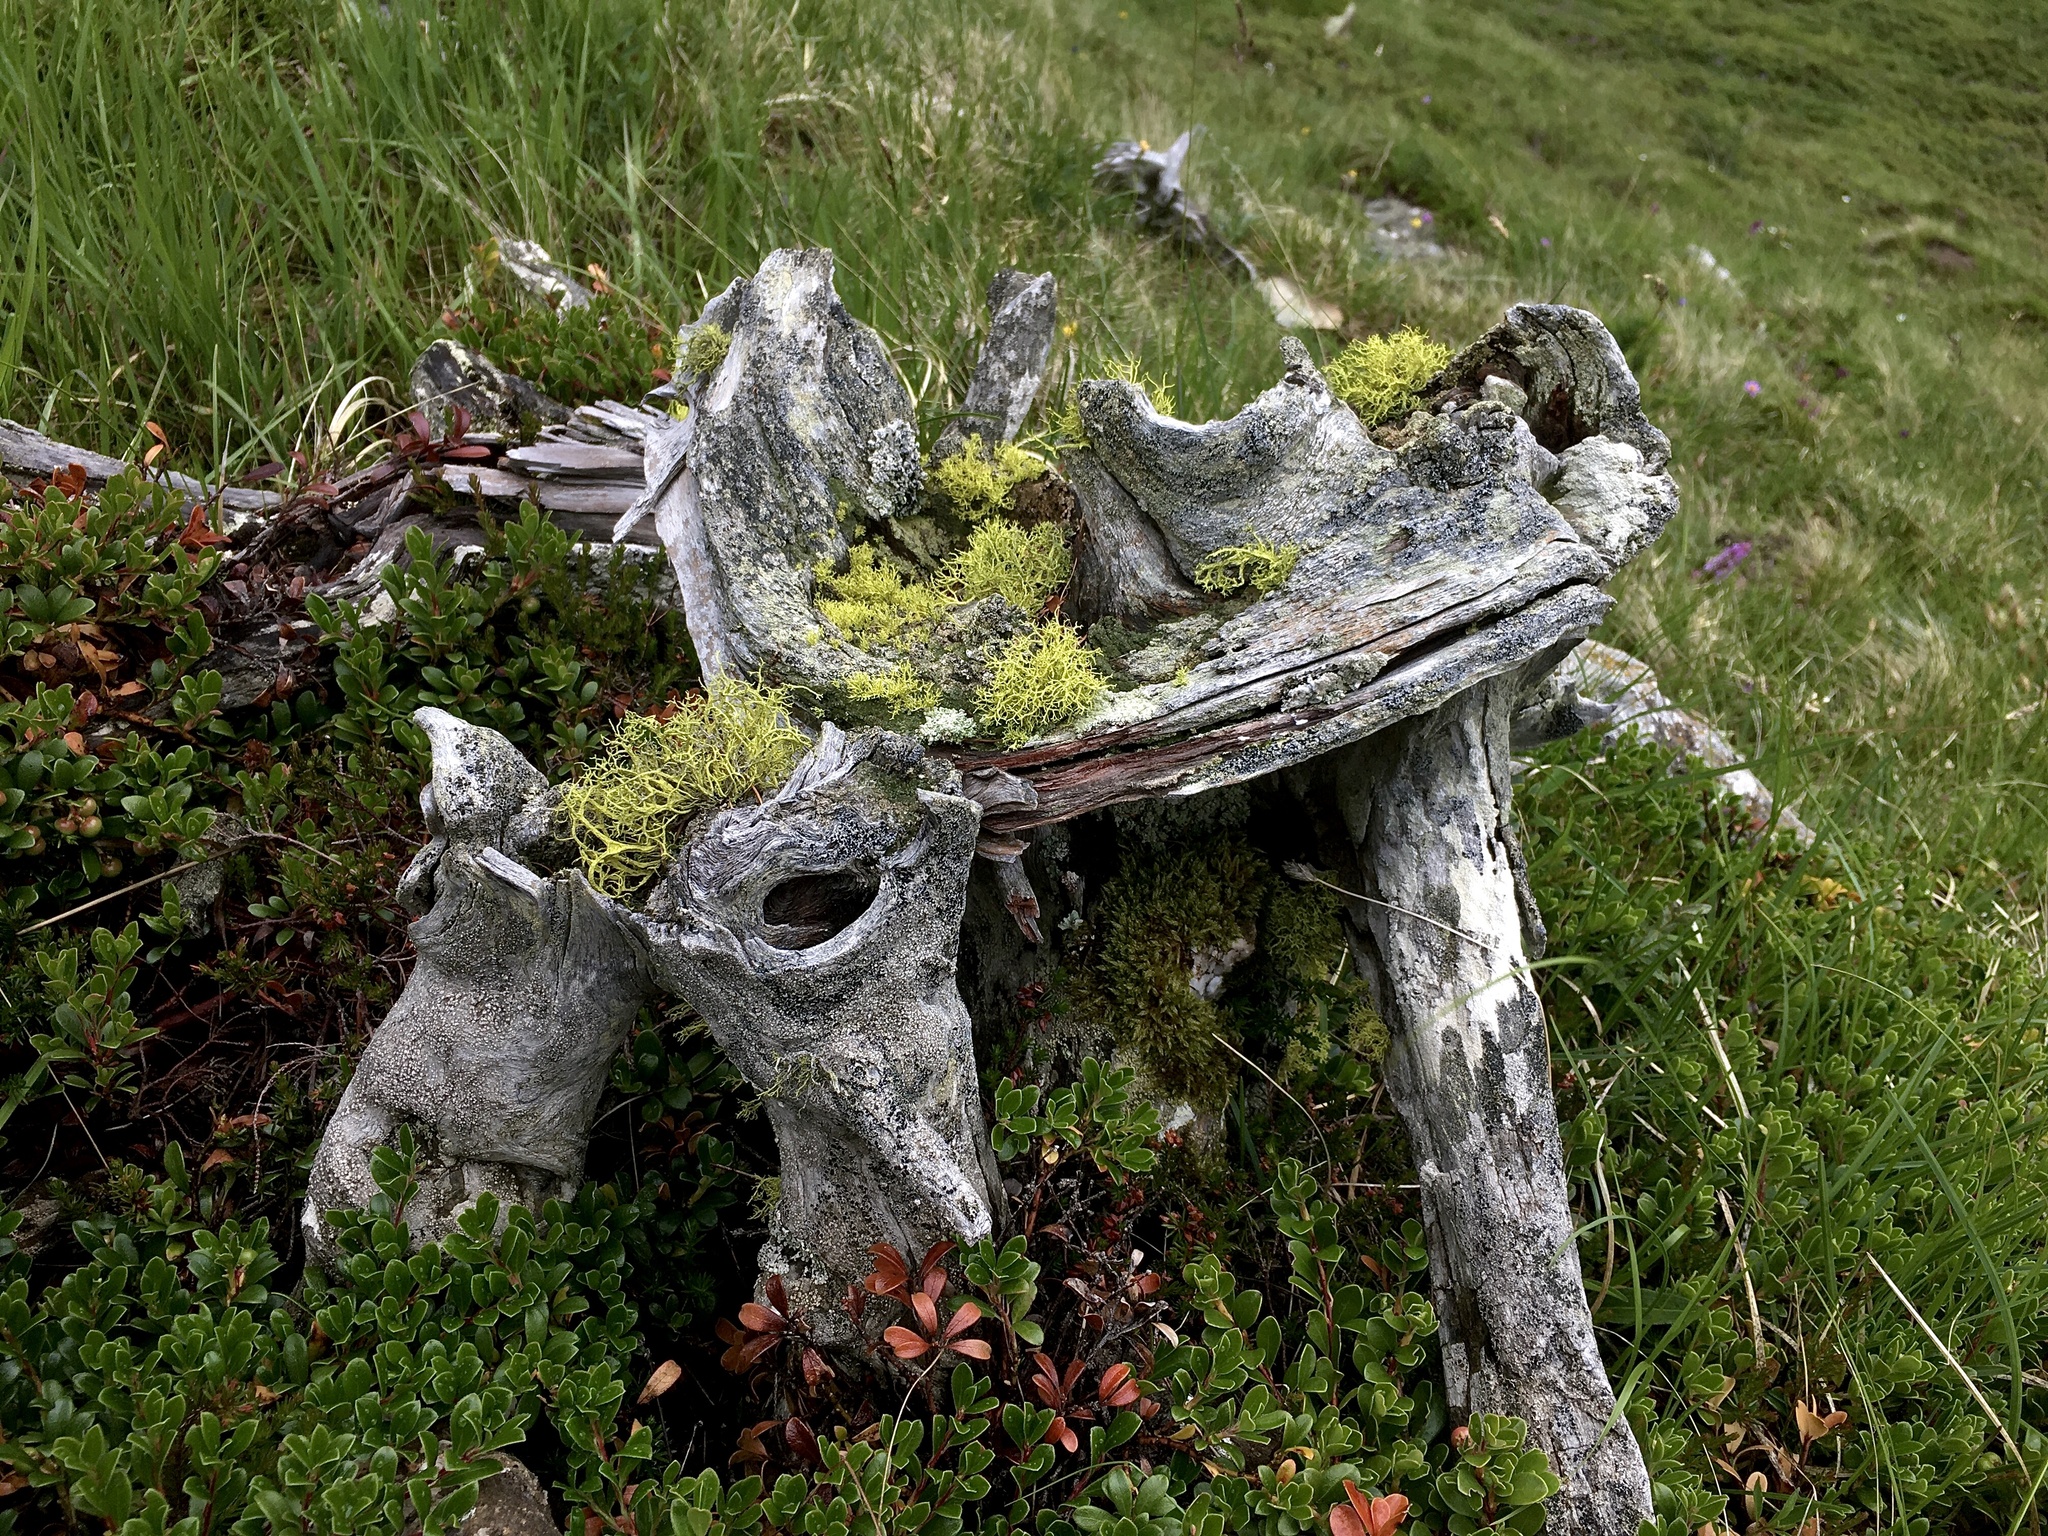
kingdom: Fungi
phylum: Ascomycota
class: Lecanoromycetes
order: Lecanorales
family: Parmeliaceae
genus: Letharia
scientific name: Letharia vulpina
